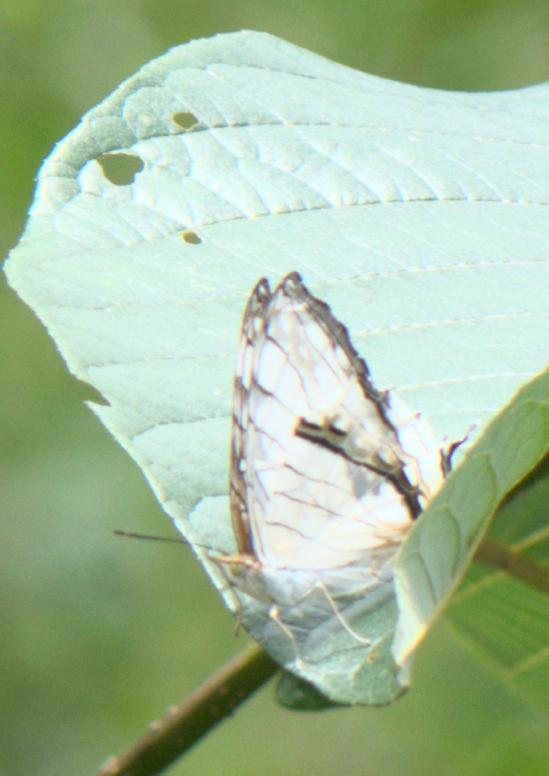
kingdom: Animalia
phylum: Arthropoda
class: Insecta
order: Lepidoptera
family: Nymphalidae
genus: Cyrestis
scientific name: Cyrestis thyodamas
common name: Common mapwing
